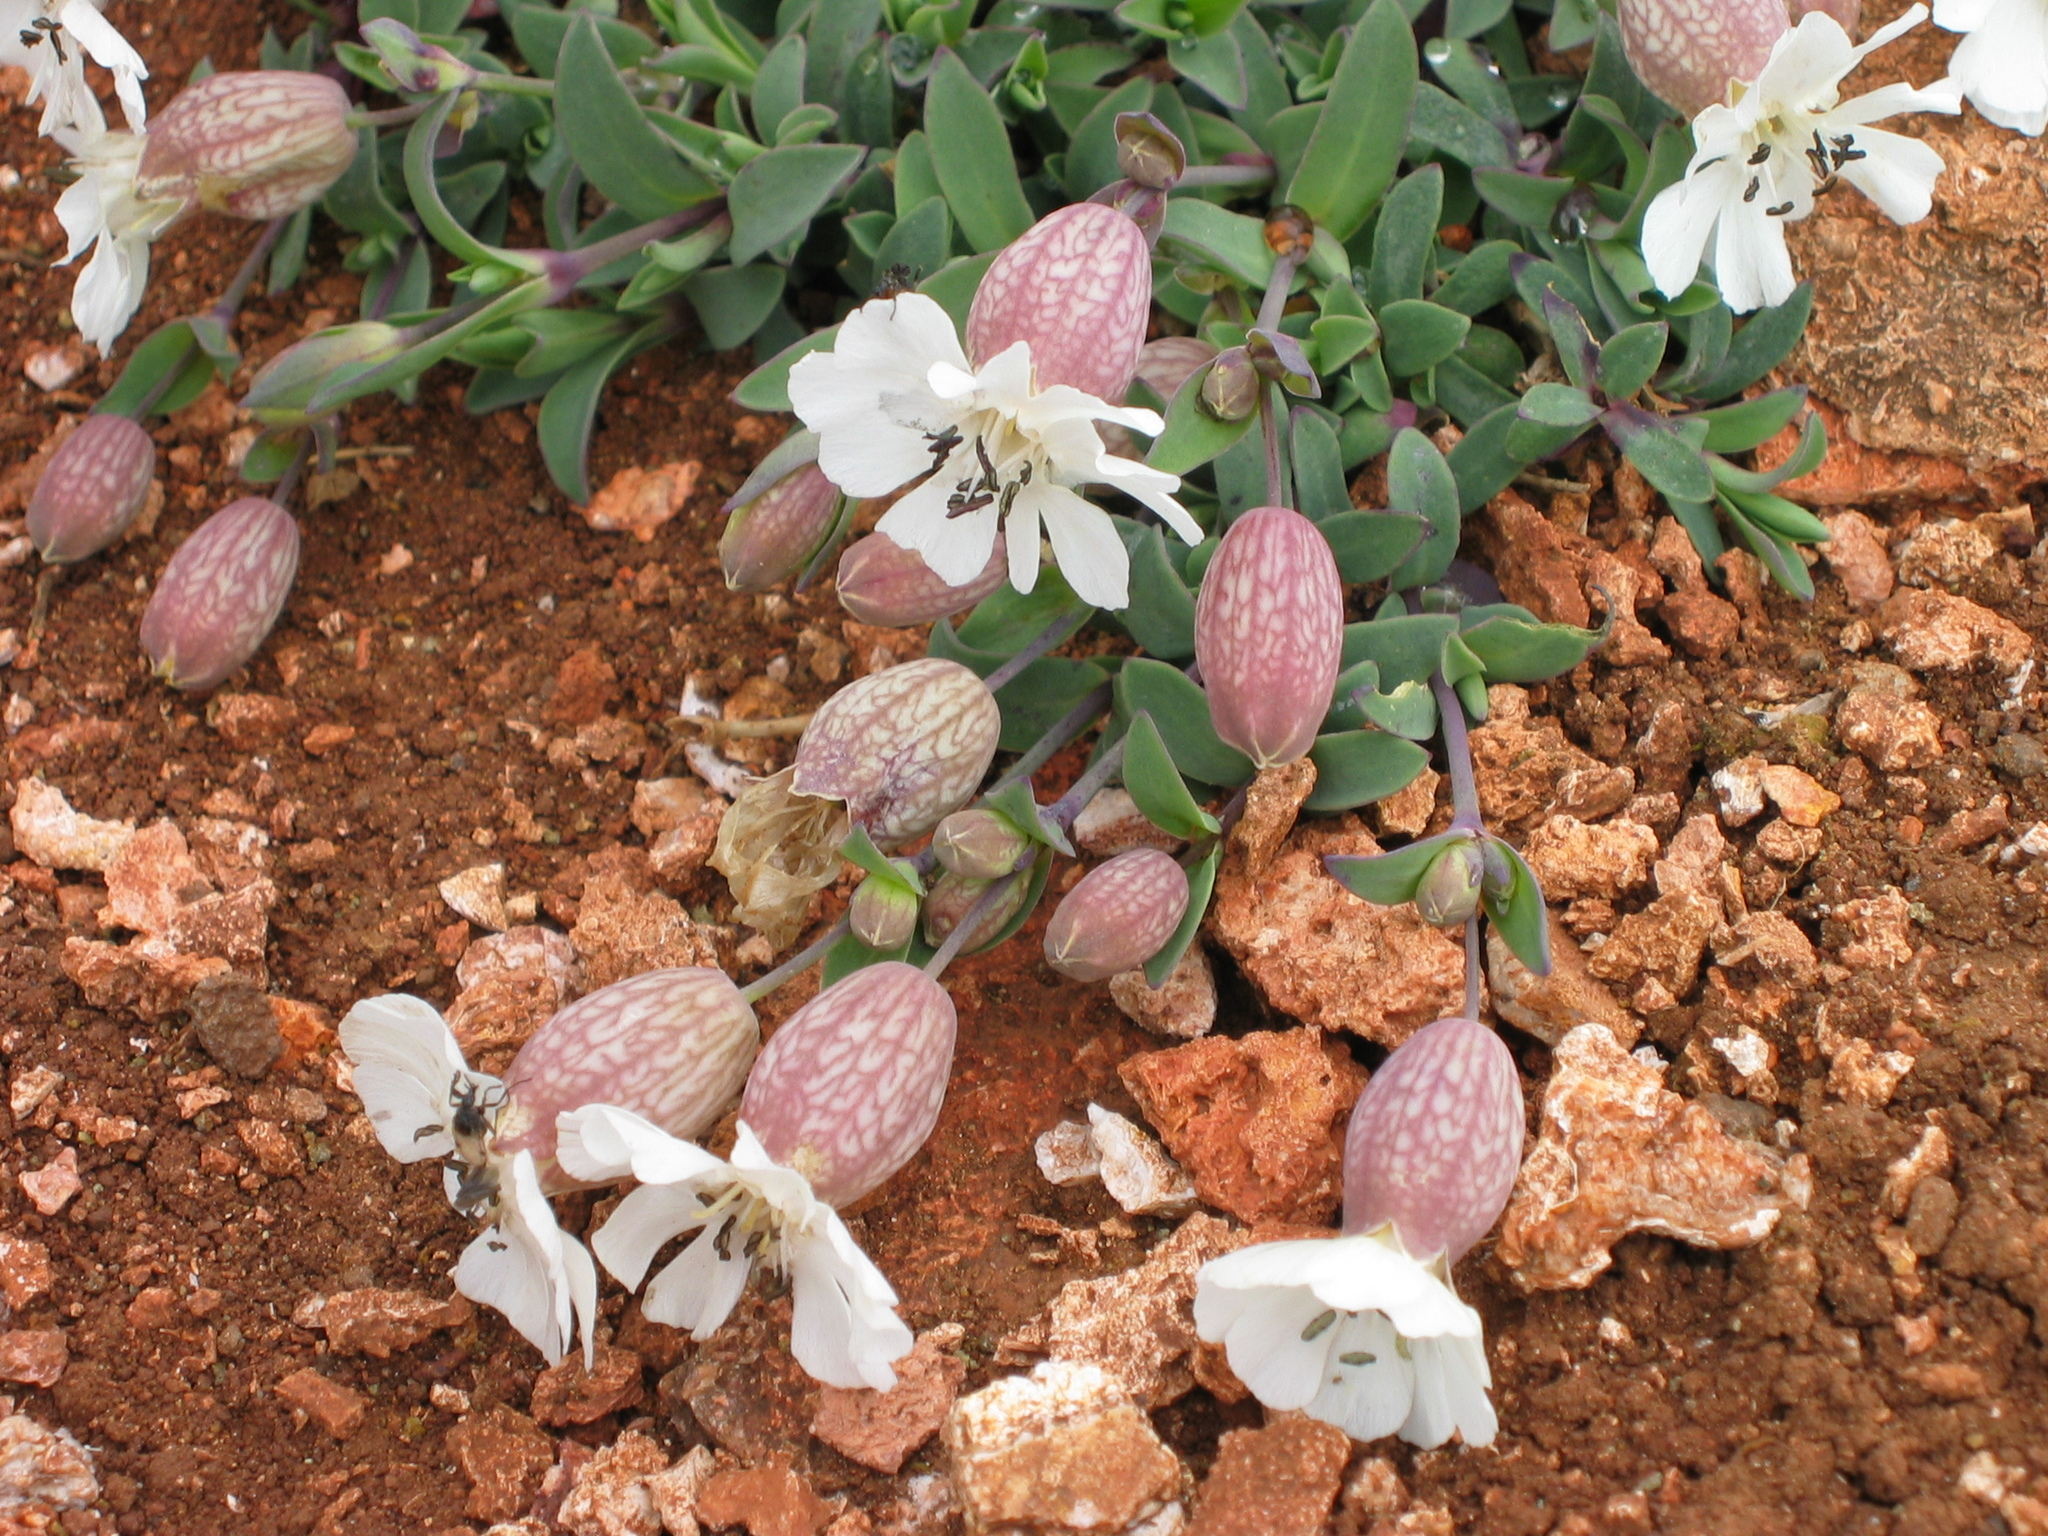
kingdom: Plantae
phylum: Tracheophyta
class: Magnoliopsida
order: Caryophyllales
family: Caryophyllaceae
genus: Silene
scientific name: Silene uniflora
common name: Sea campion
